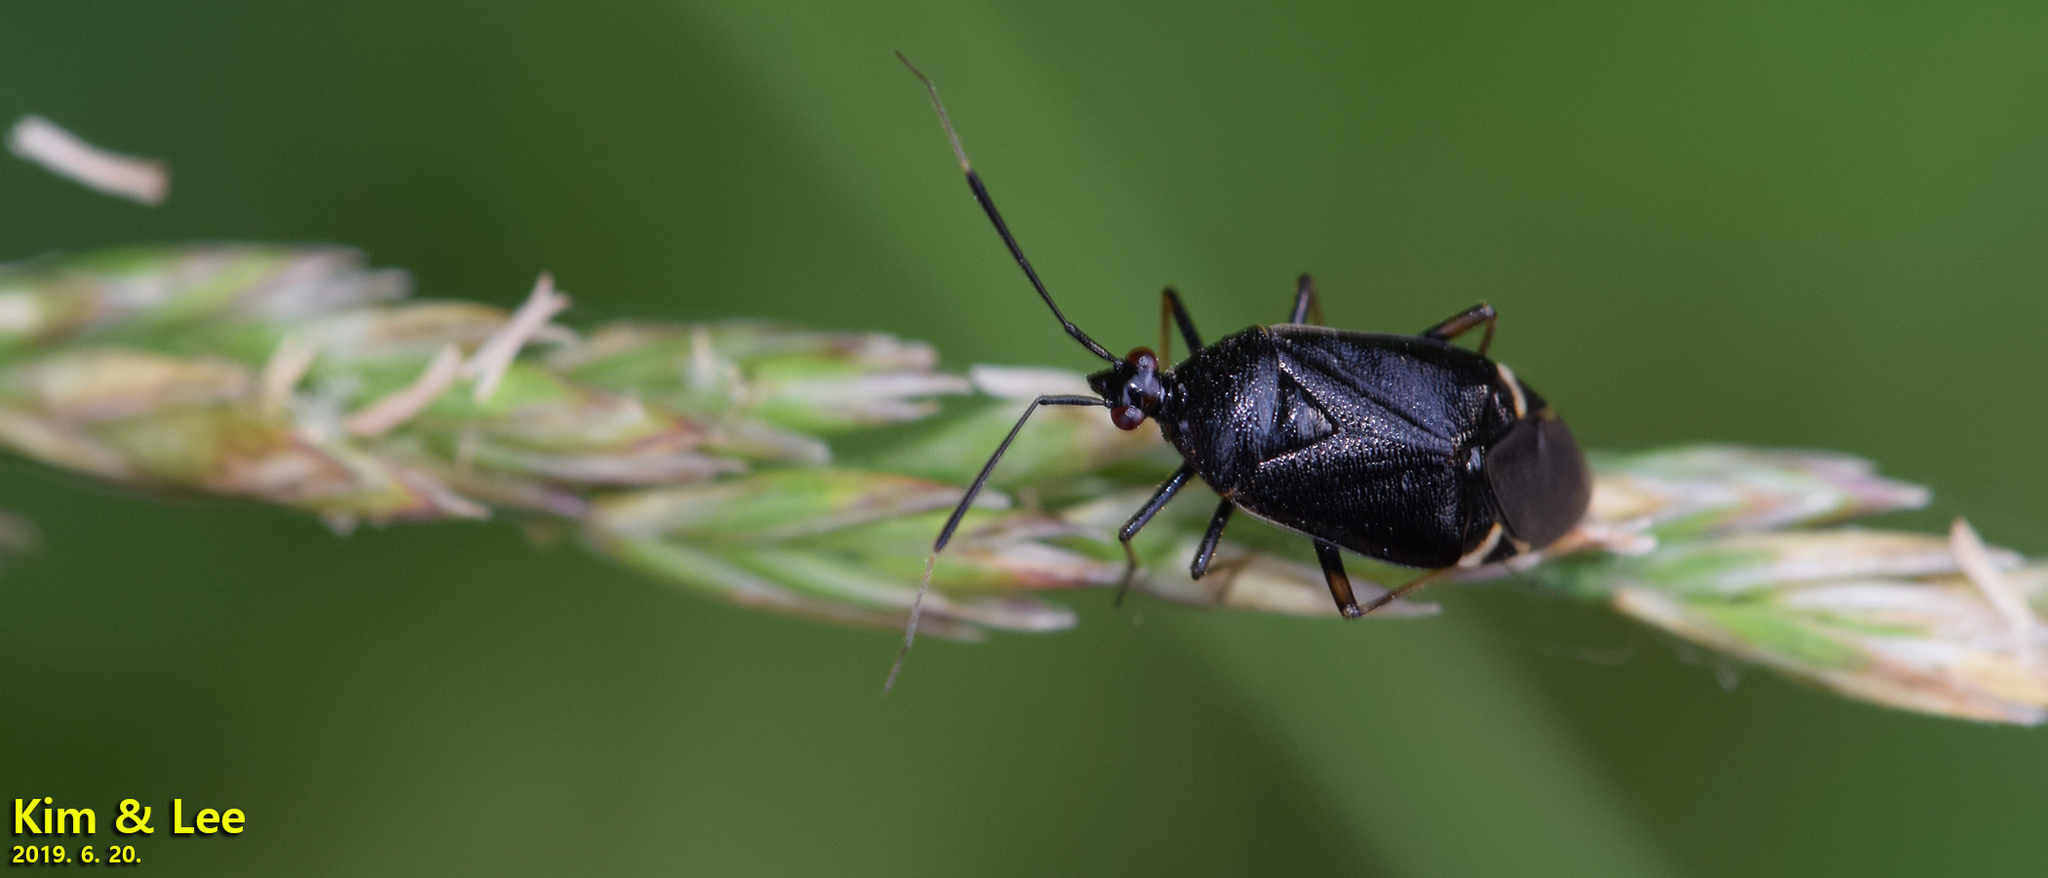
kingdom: Animalia
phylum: Arthropoda
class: Insecta
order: Hemiptera
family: Miridae
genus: Deraeocoris
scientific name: Deraeocoris ater
